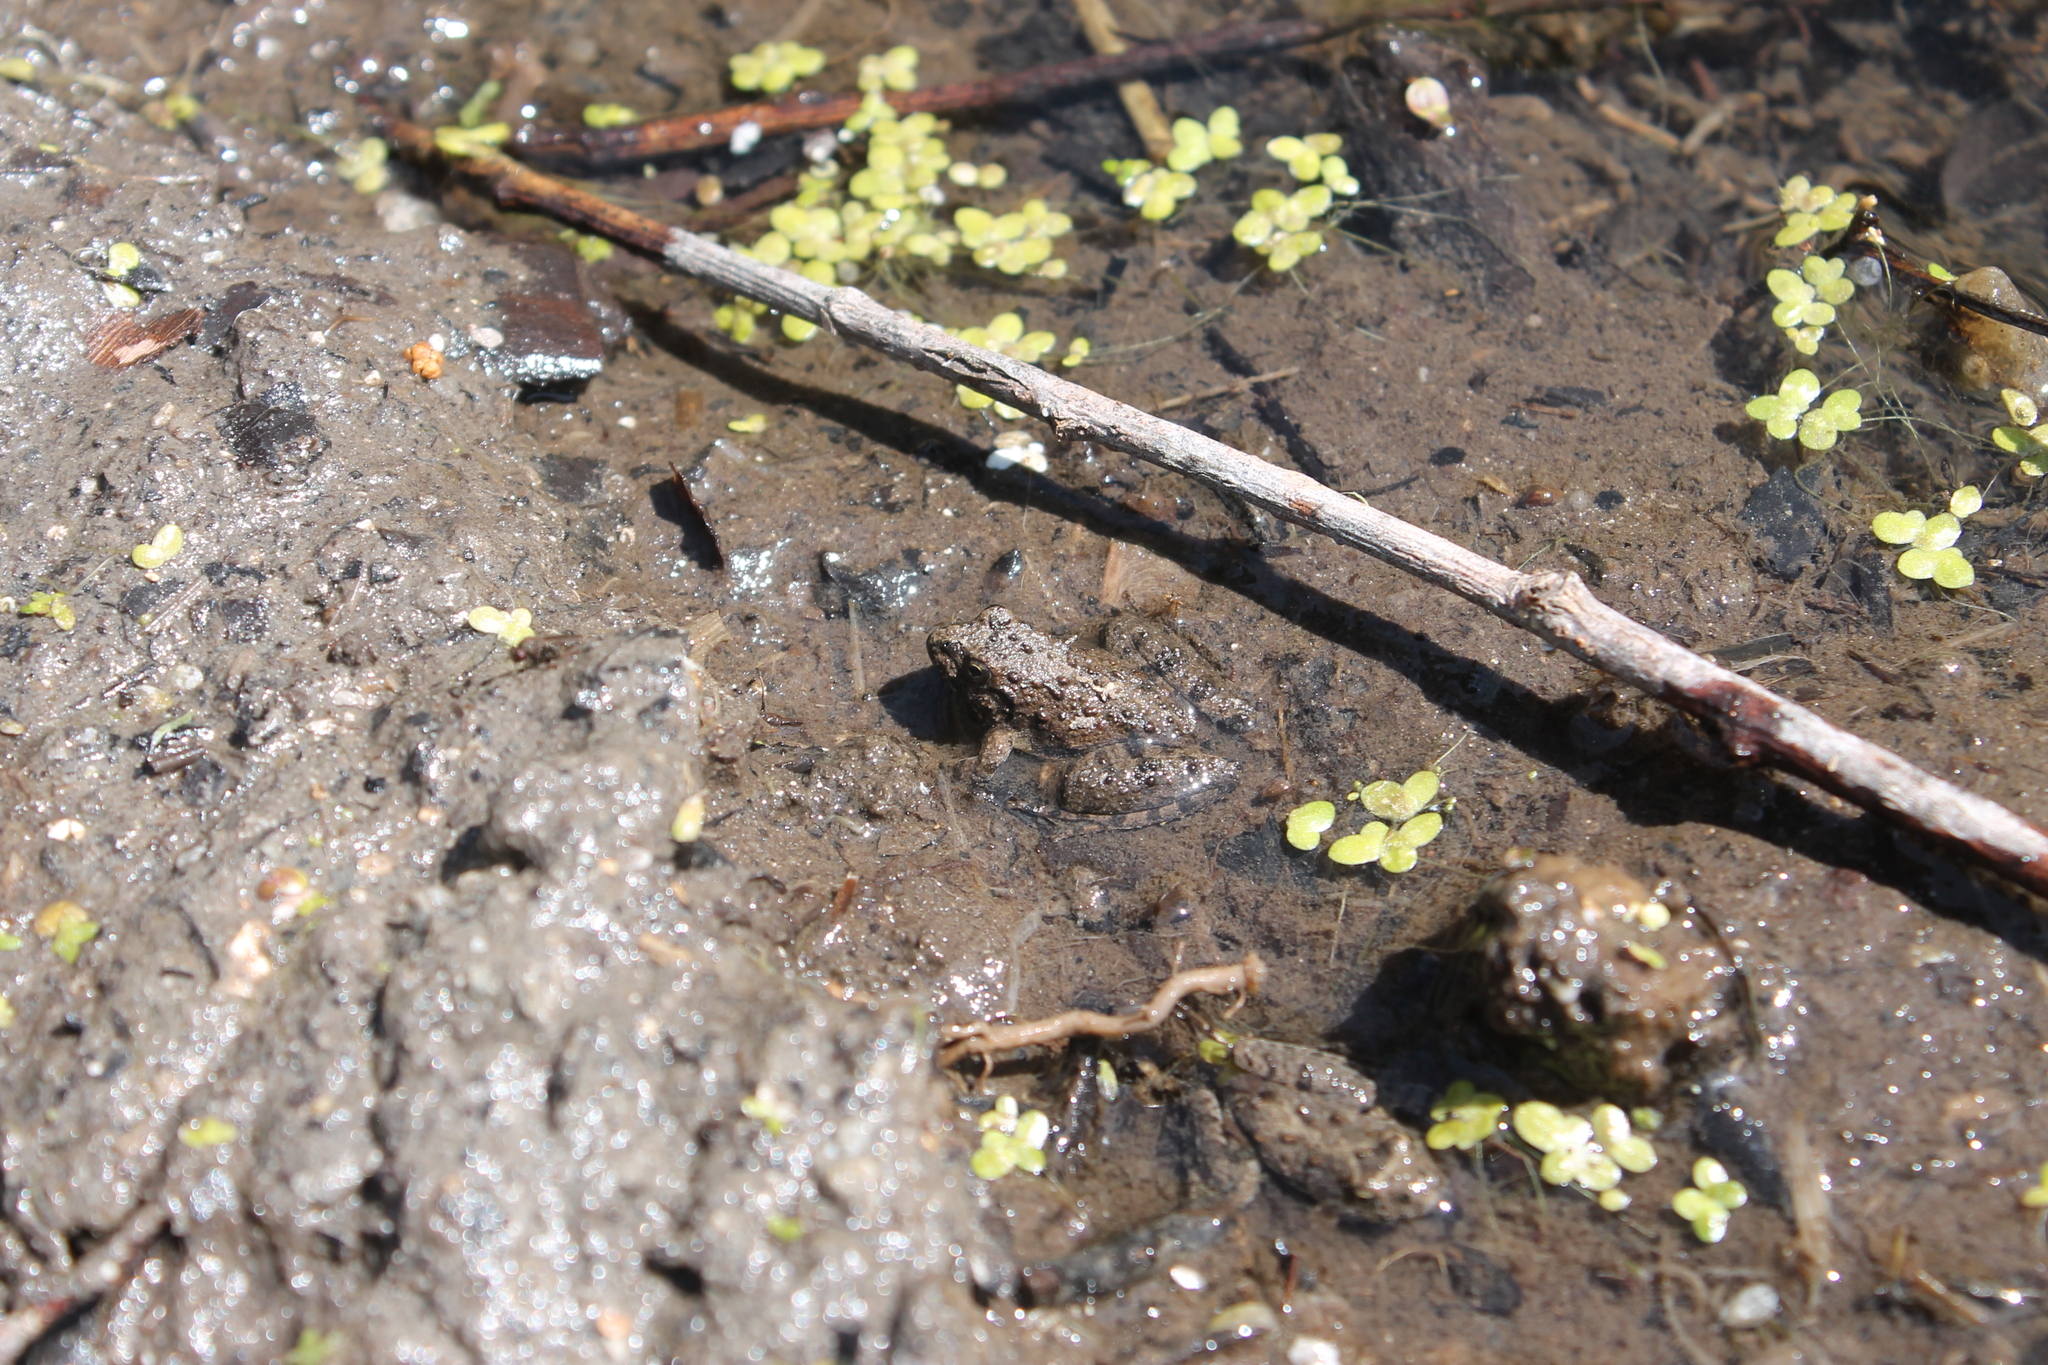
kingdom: Animalia
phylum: Chordata
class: Amphibia
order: Anura
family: Hylidae
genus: Acris
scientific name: Acris blanchardi
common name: Blanchard's cricket frog
